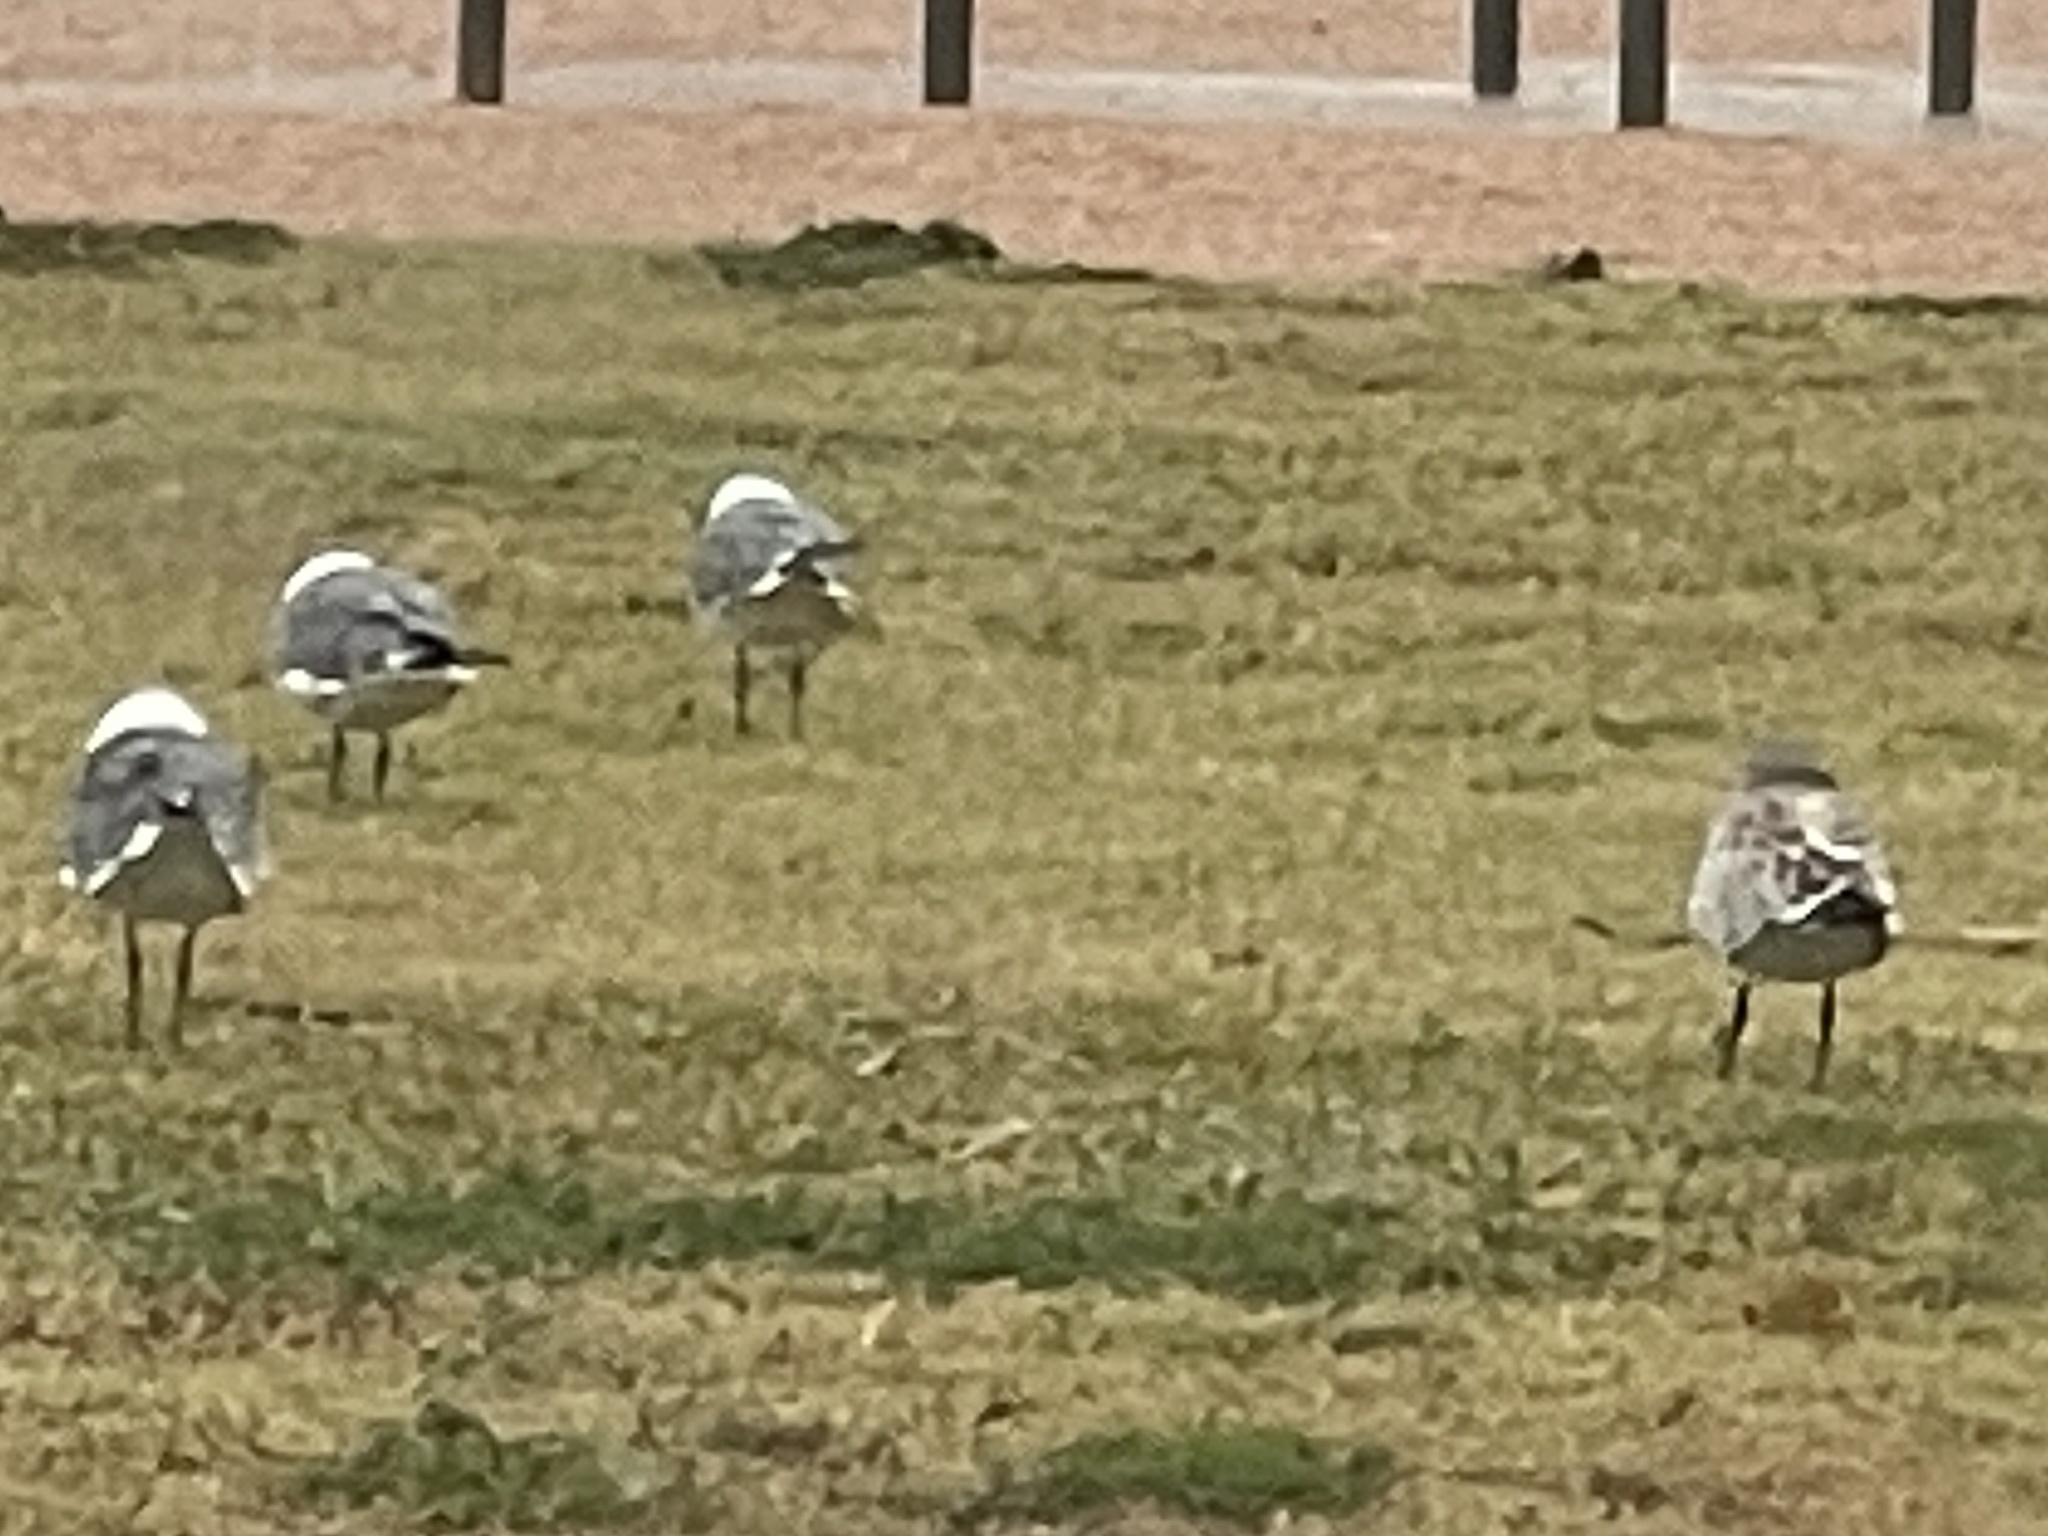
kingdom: Animalia
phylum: Chordata
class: Aves
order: Charadriiformes
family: Laridae
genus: Leucophaeus
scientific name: Leucophaeus atricilla
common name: Laughing gull
